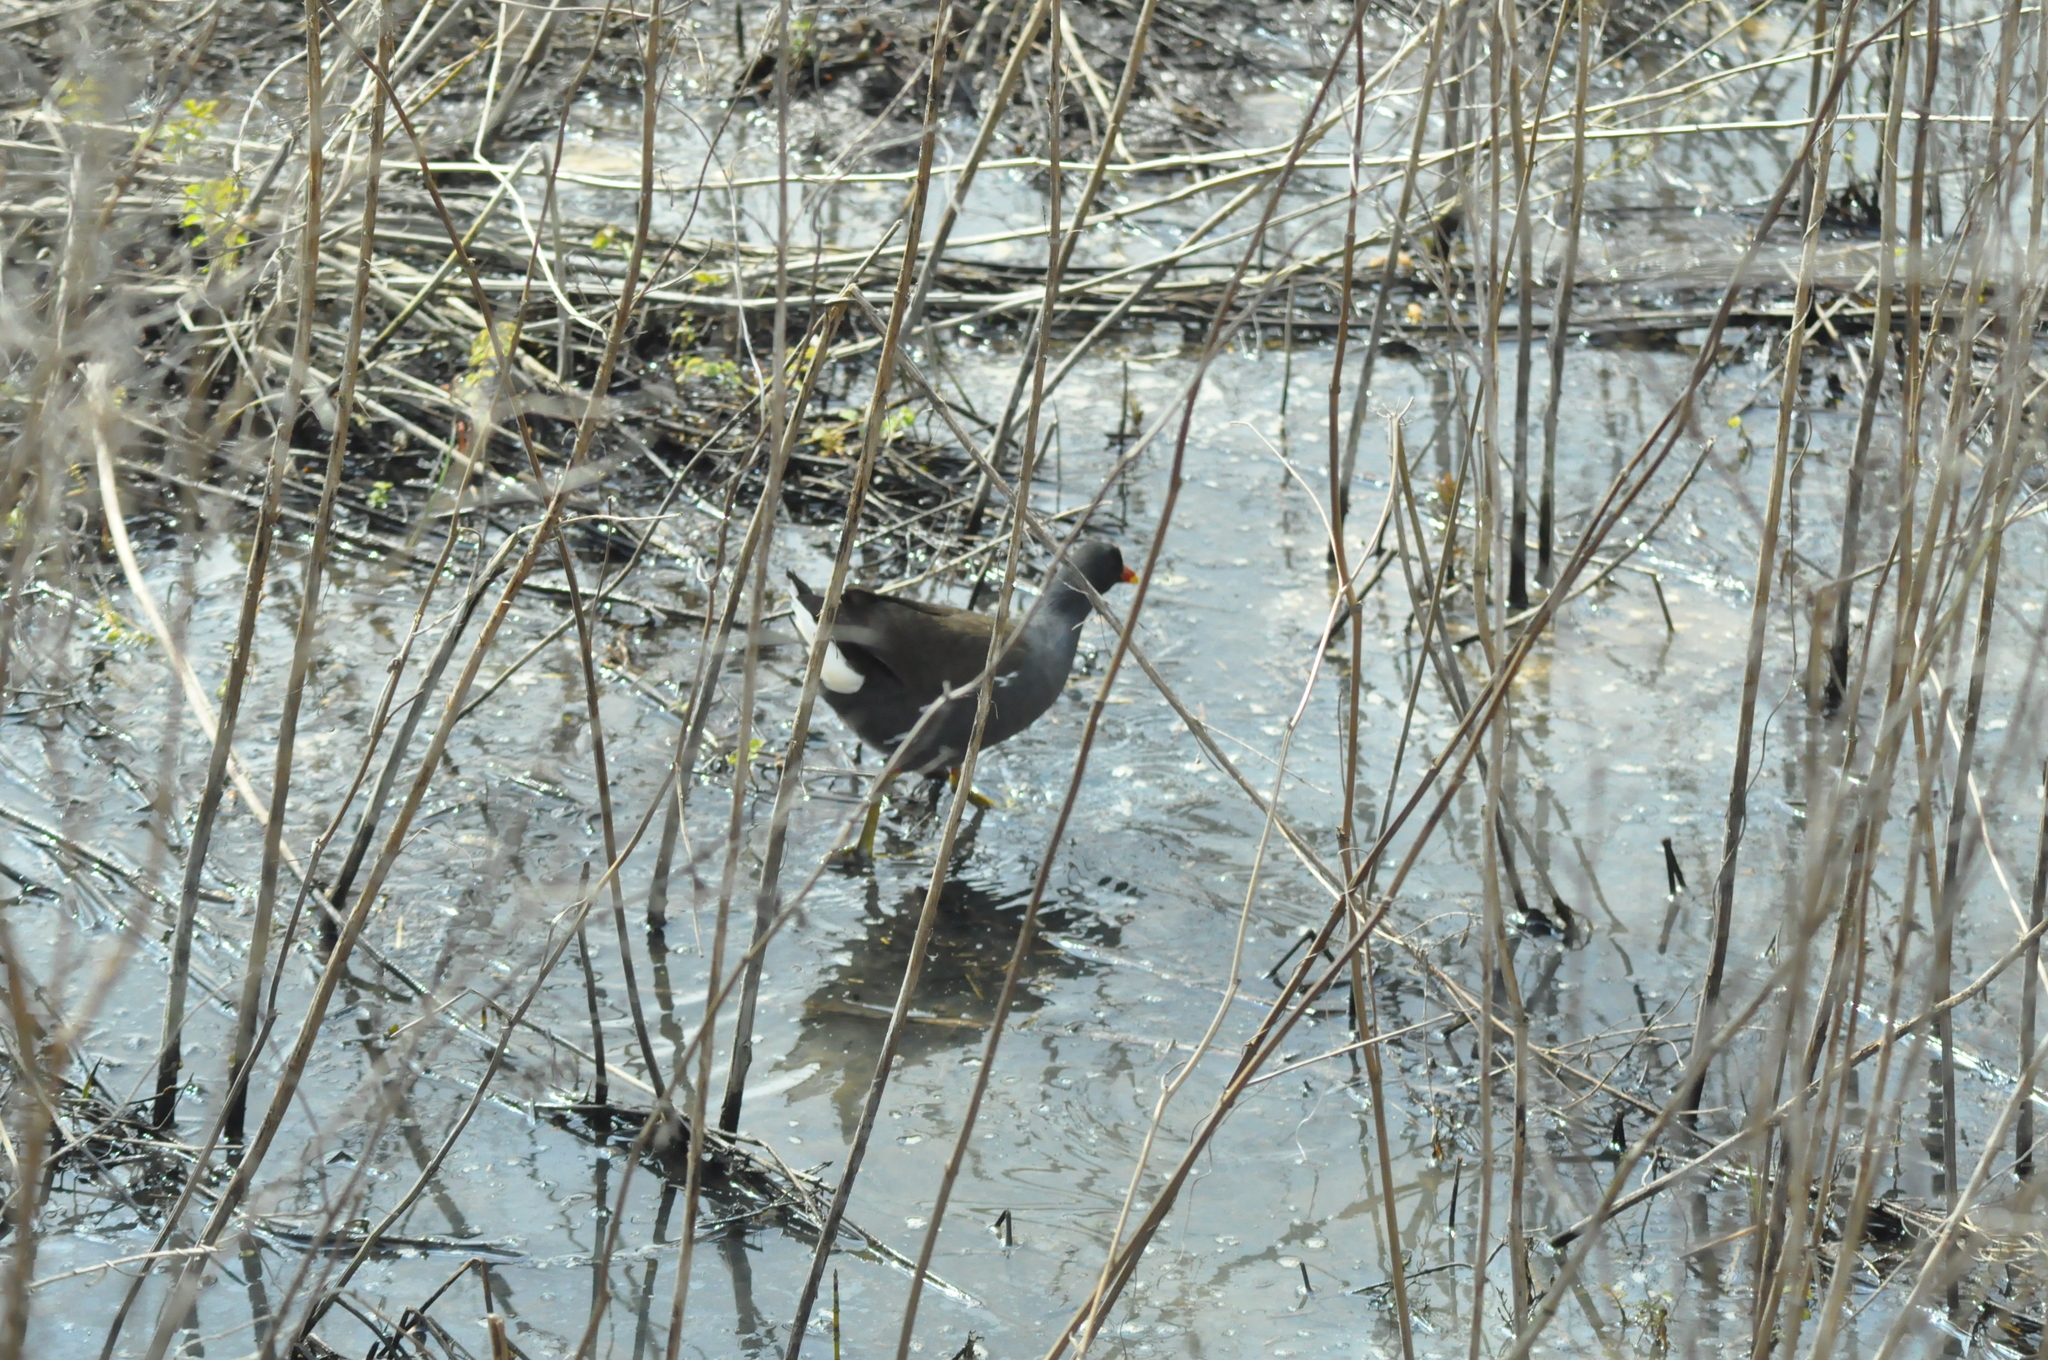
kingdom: Animalia
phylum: Chordata
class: Aves
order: Gruiformes
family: Rallidae
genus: Gallinula
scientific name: Gallinula chloropus
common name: Common moorhen
